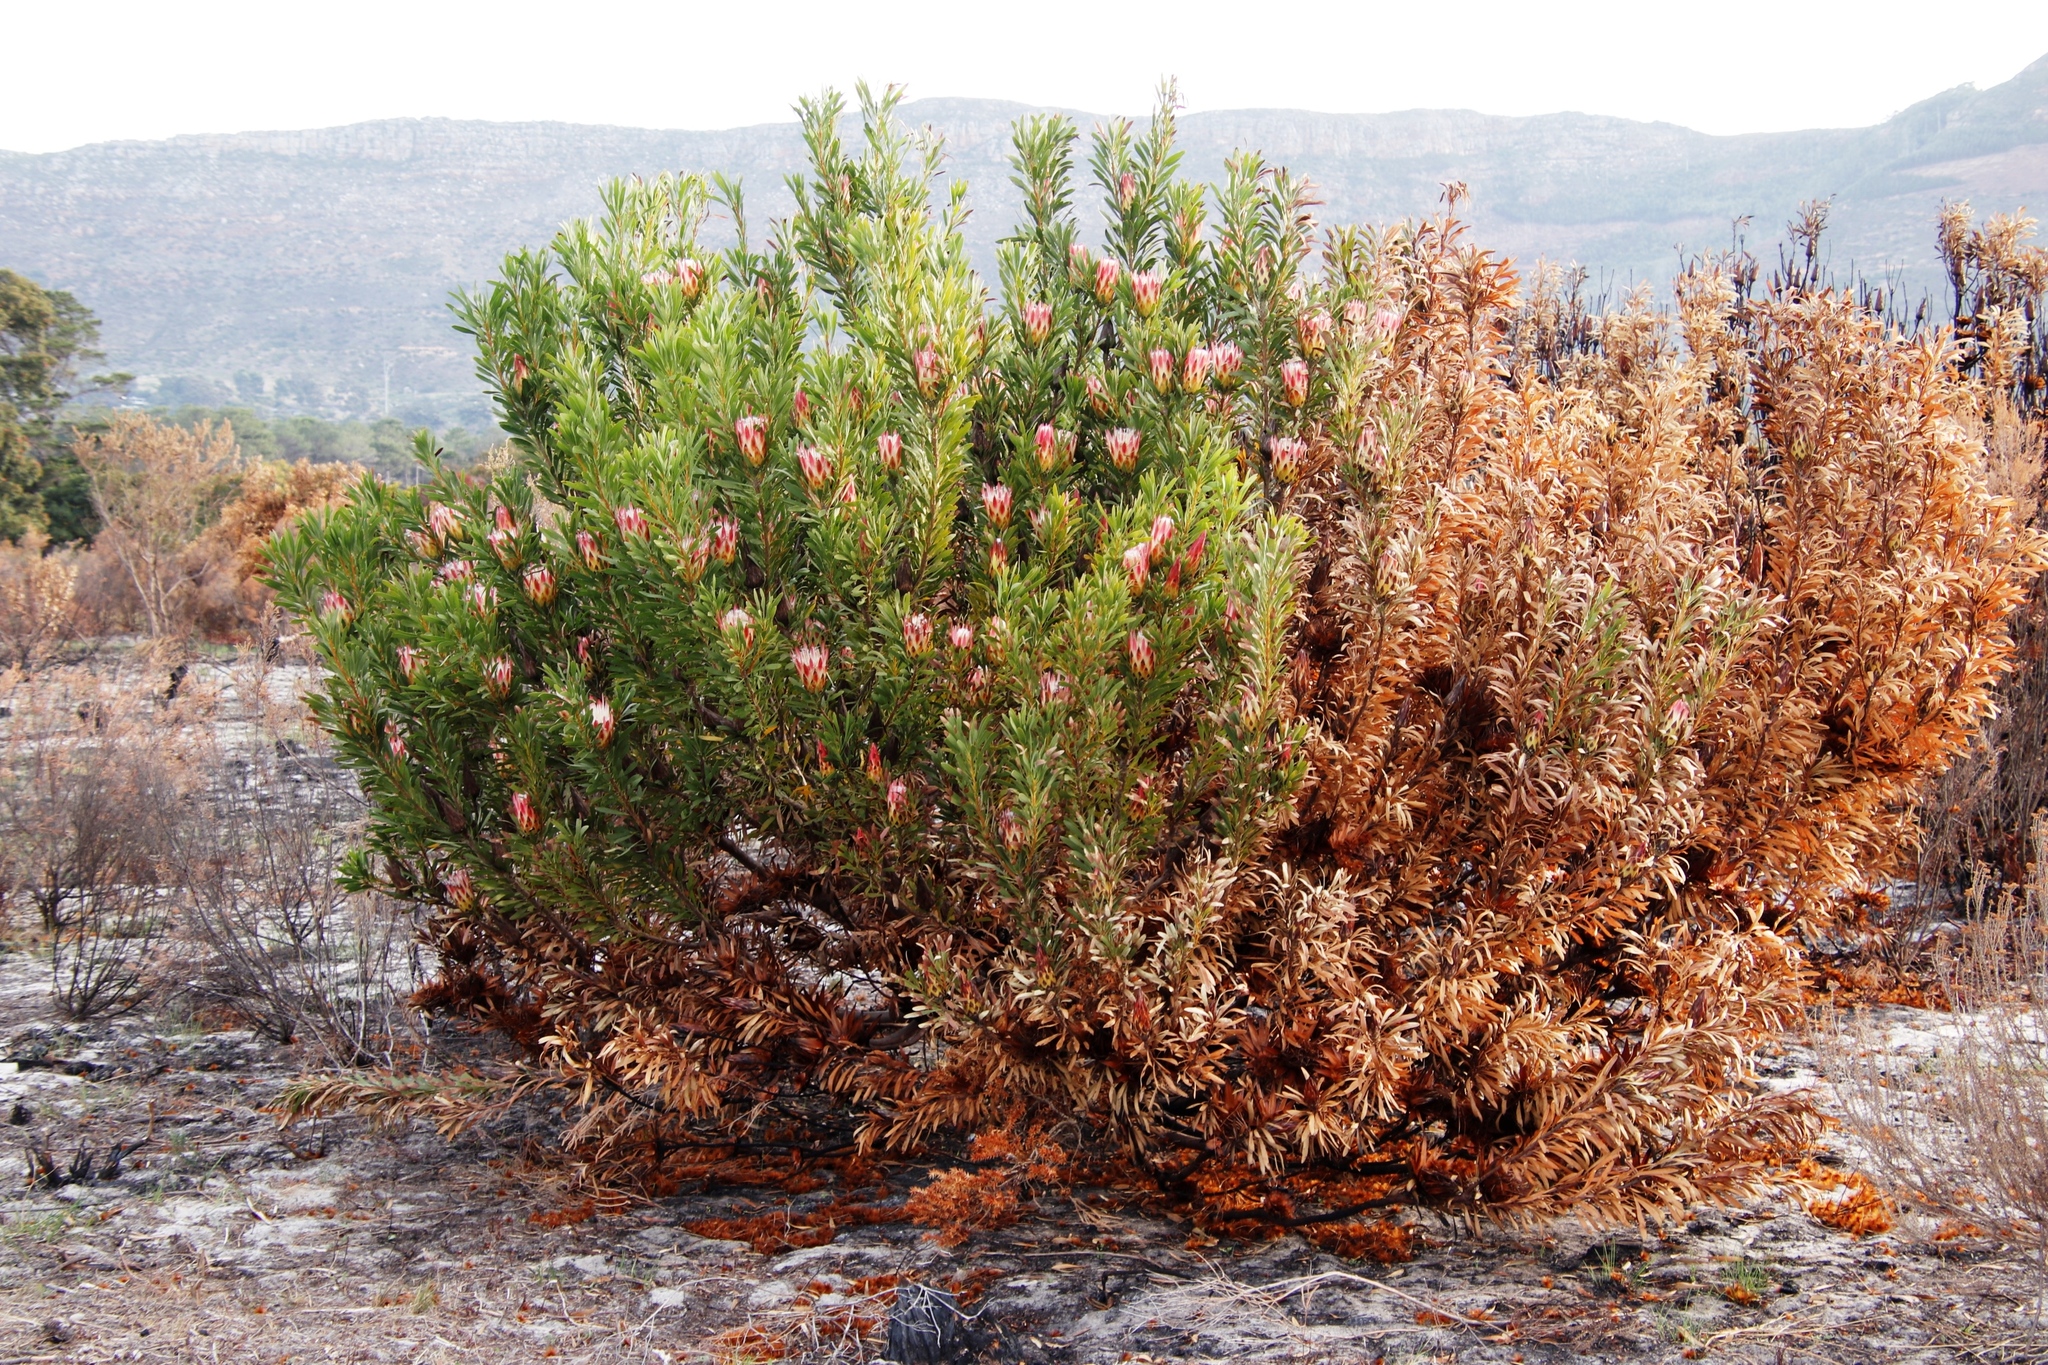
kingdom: Plantae
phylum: Tracheophyta
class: Magnoliopsida
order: Proteales
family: Proteaceae
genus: Protea
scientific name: Protea repens
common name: Sugarbush
